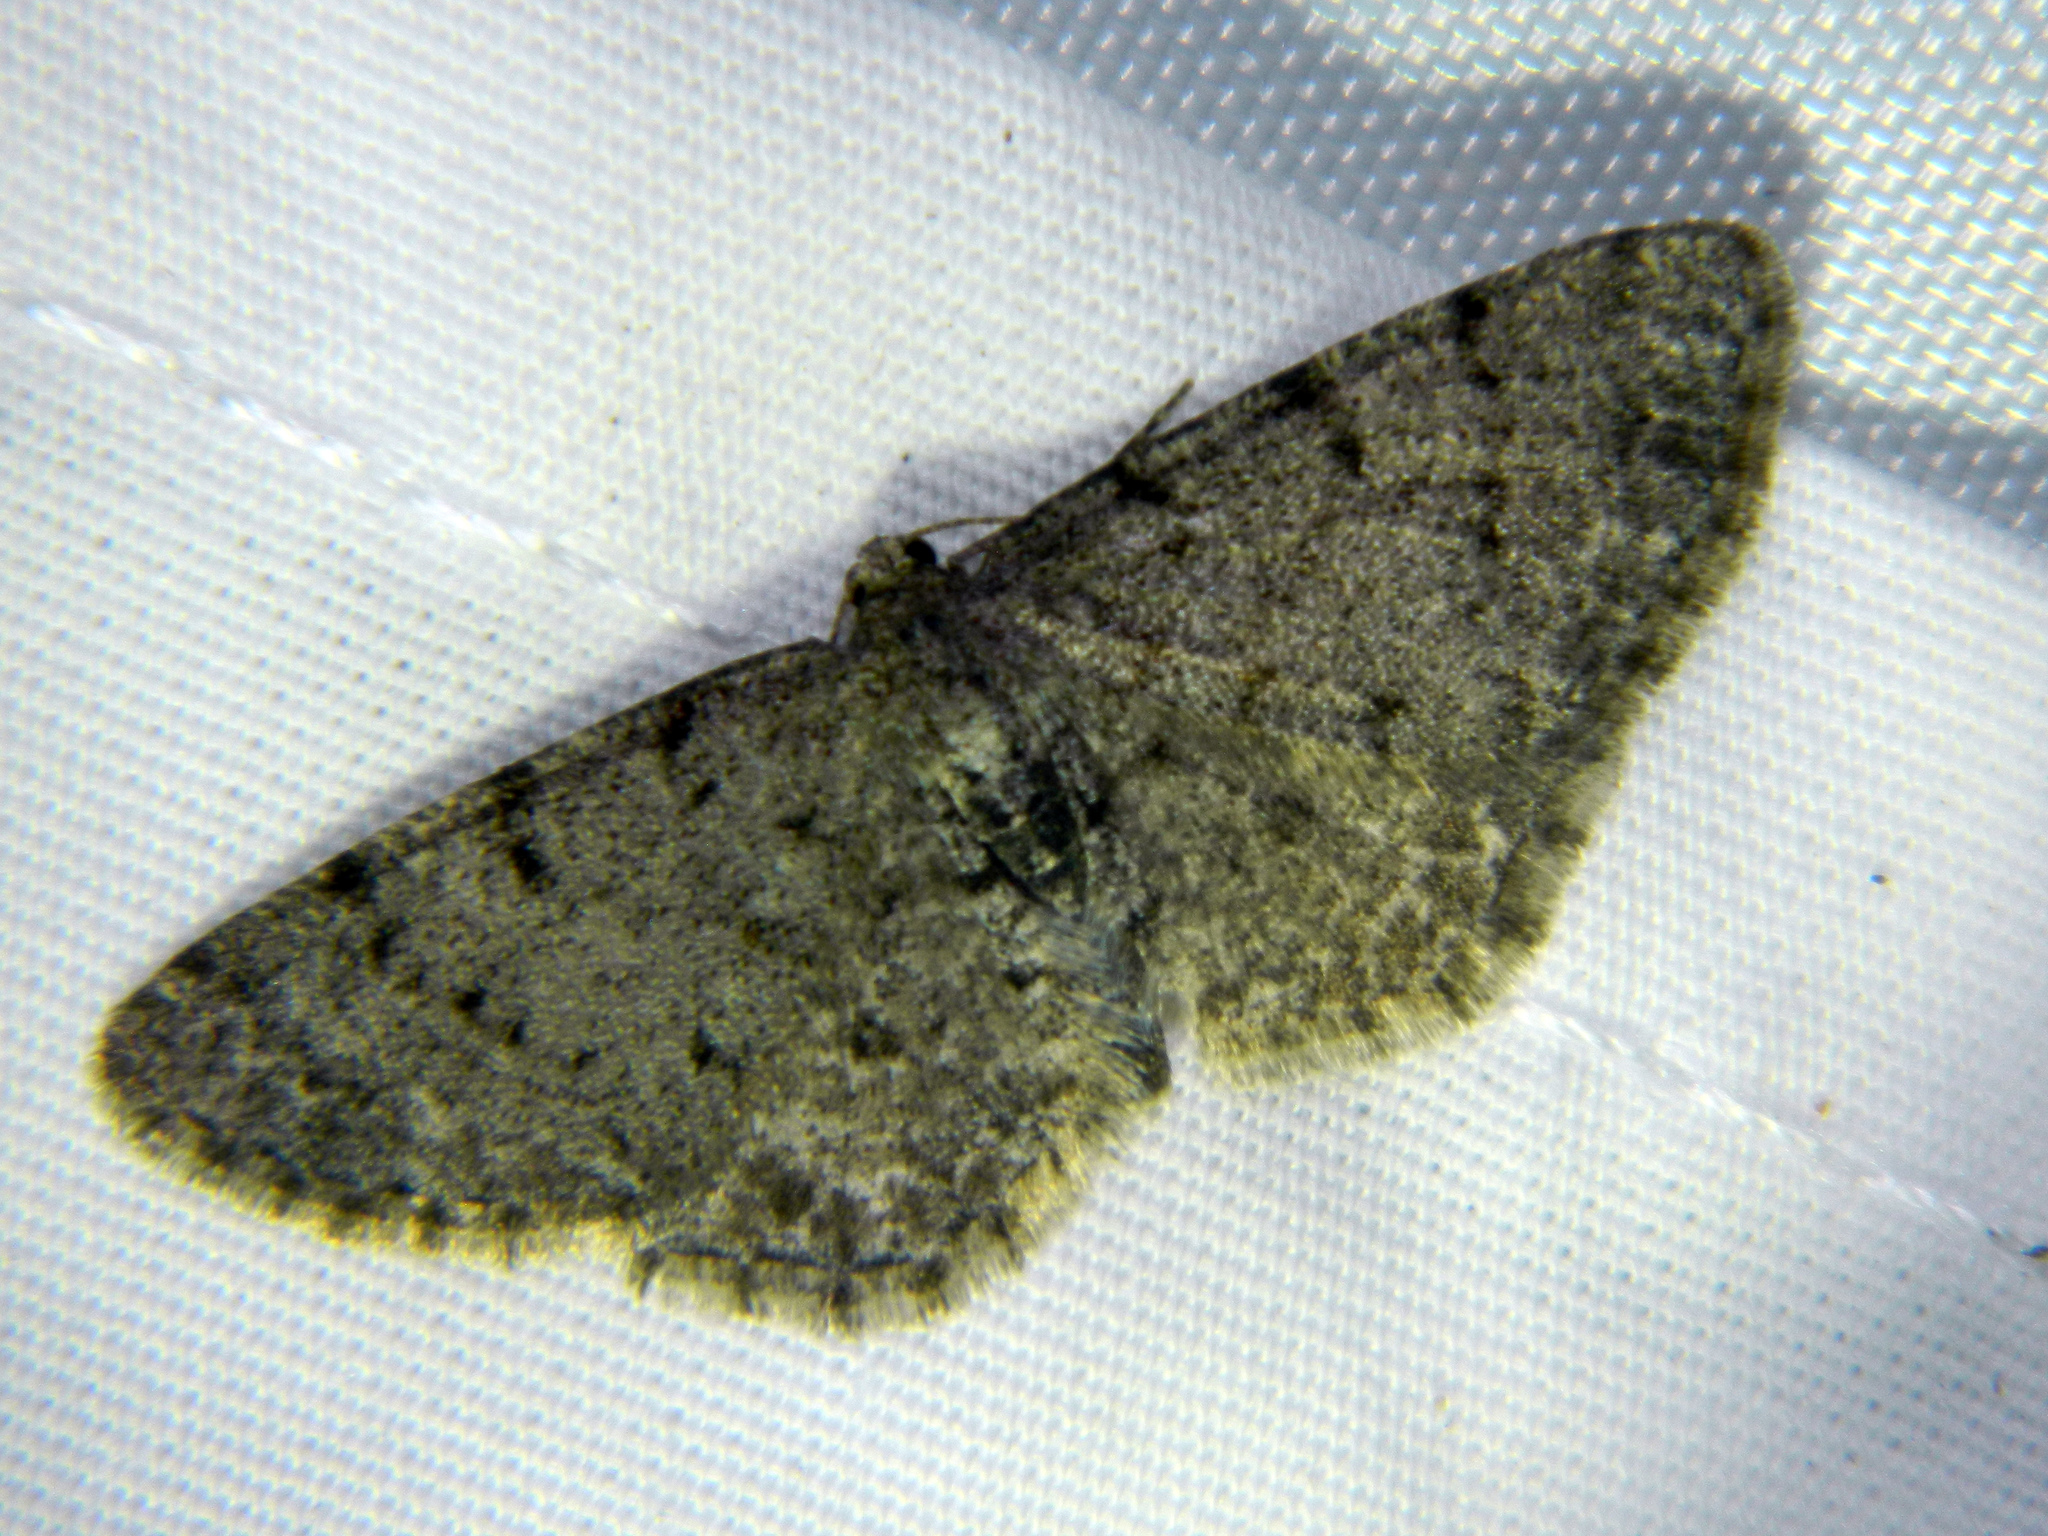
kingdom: Animalia
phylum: Arthropoda
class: Insecta
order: Lepidoptera
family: Geometridae
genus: Aethalura
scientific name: Aethalura intertexta
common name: Four-barred gray
